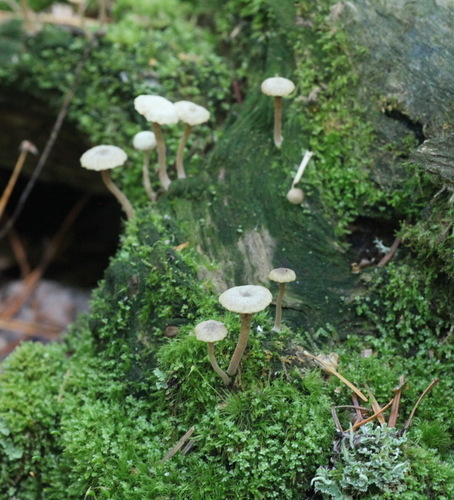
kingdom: Fungi
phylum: Basidiomycota
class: Agaricomycetes
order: Agaricales
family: Hygrophoraceae
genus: Lichenomphalia
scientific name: Lichenomphalia umbellifera
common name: Heath navel
